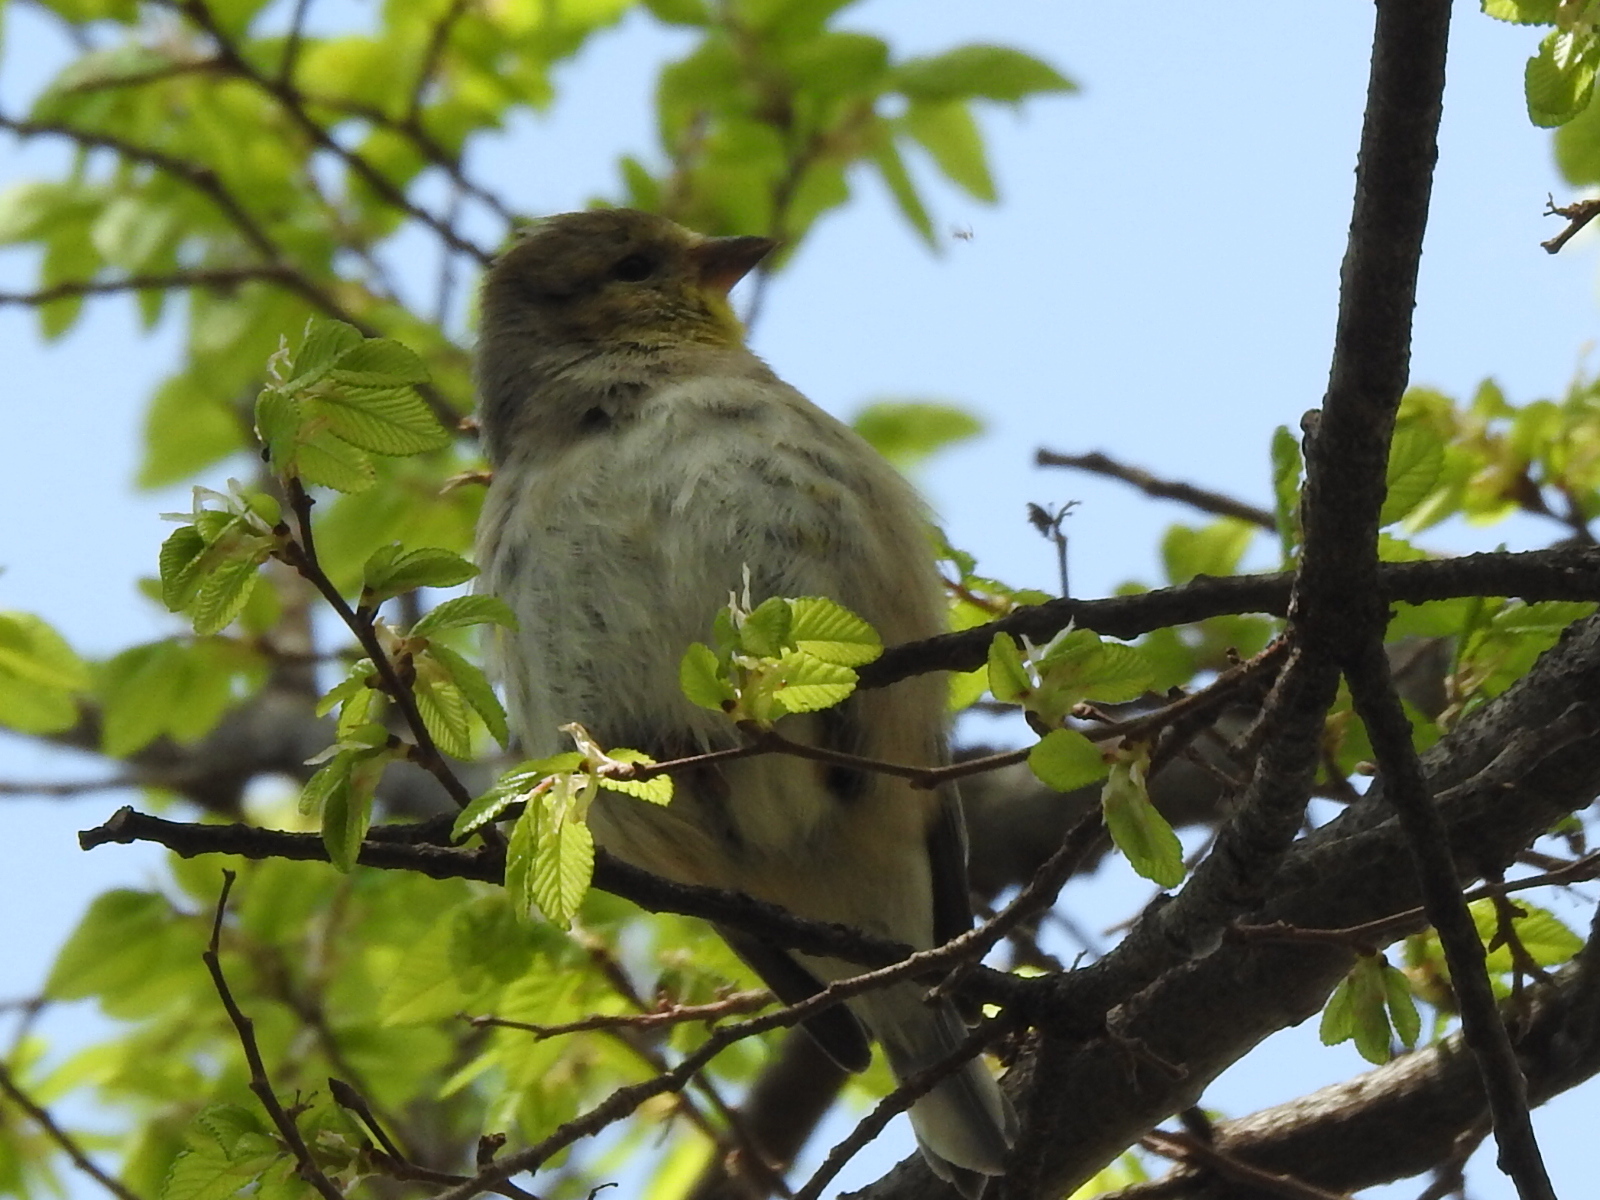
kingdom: Animalia
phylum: Chordata
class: Aves
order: Passeriformes
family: Fringillidae
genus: Spinus
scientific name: Spinus tristis
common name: American goldfinch
